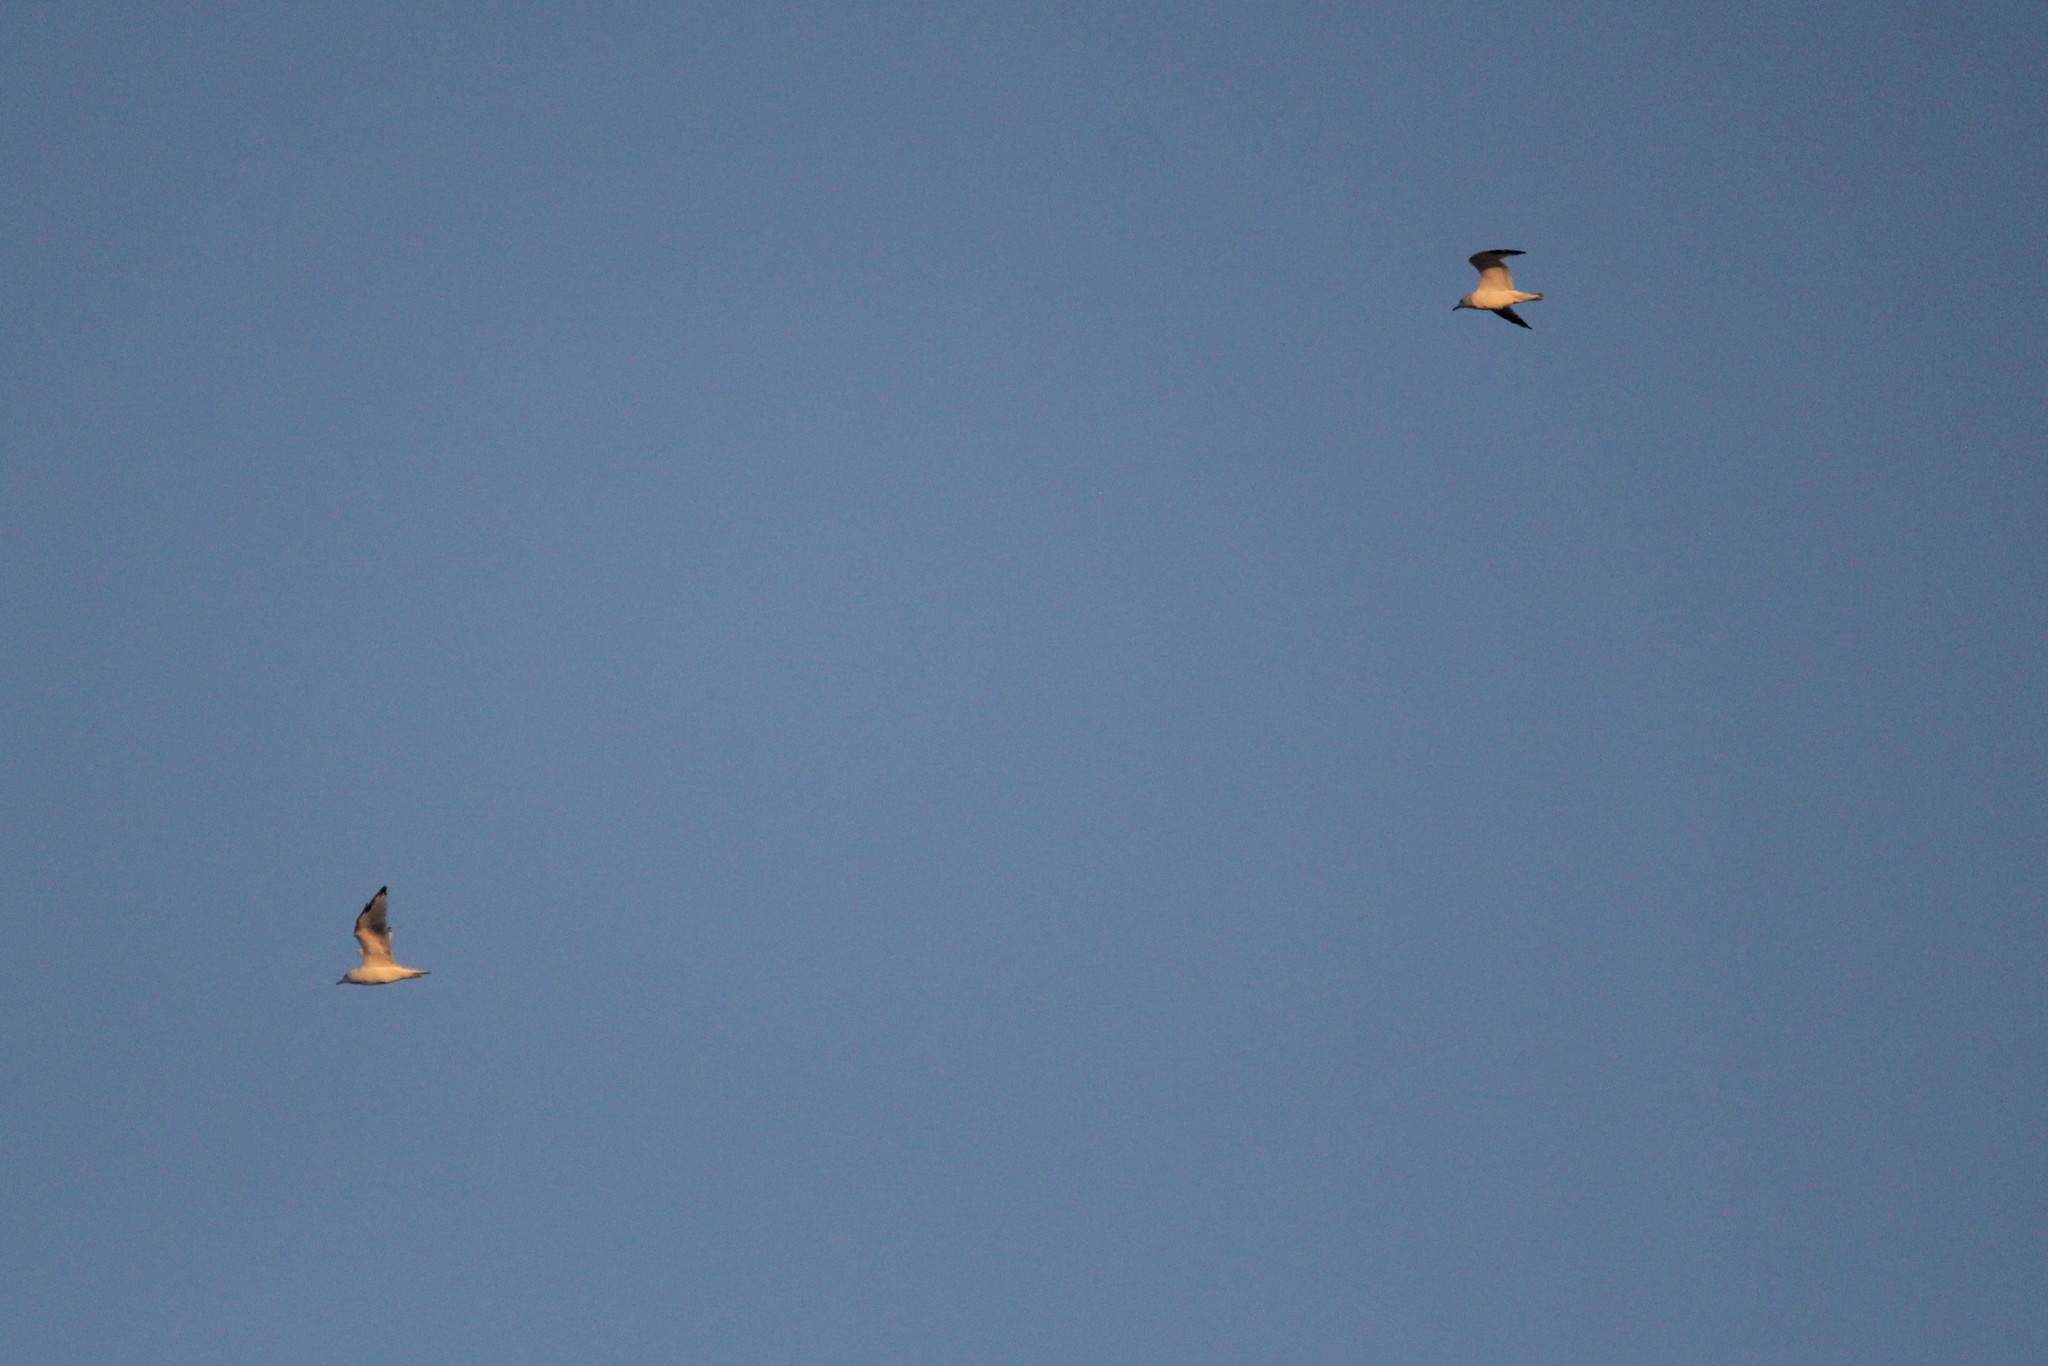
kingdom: Animalia
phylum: Chordata
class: Aves
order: Charadriiformes
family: Laridae
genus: Larus
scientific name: Larus delawarensis
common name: Ring-billed gull
